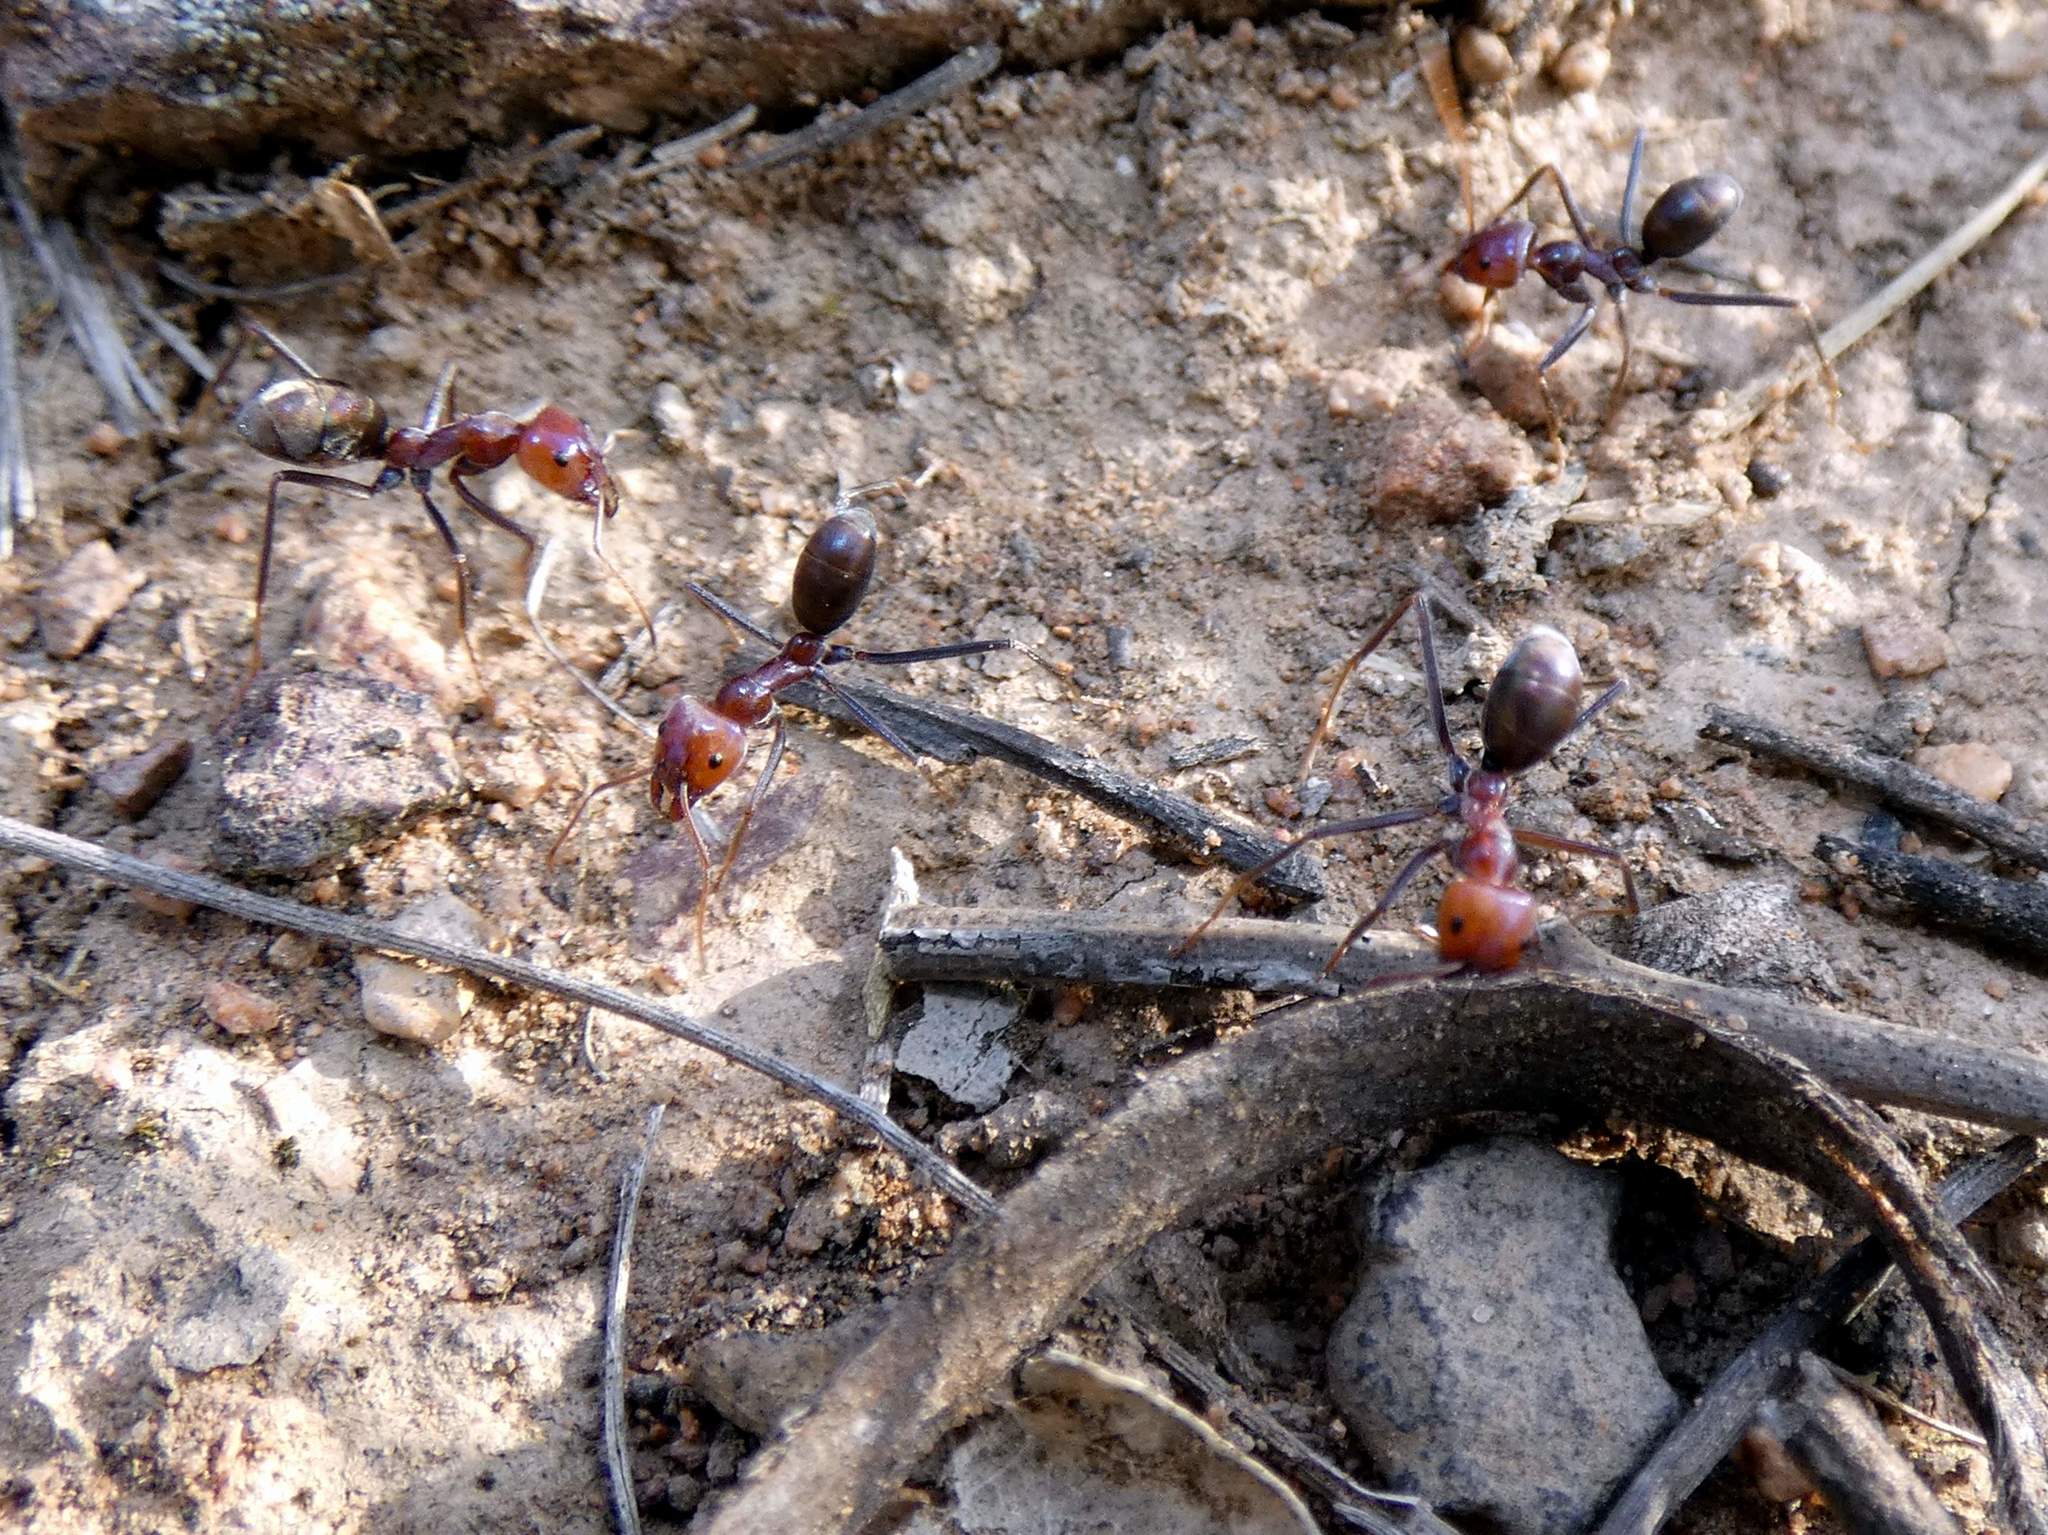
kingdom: Animalia
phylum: Arthropoda
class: Insecta
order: Hymenoptera
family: Formicidae
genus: Iridomyrmex
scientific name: Iridomyrmex purpureus
